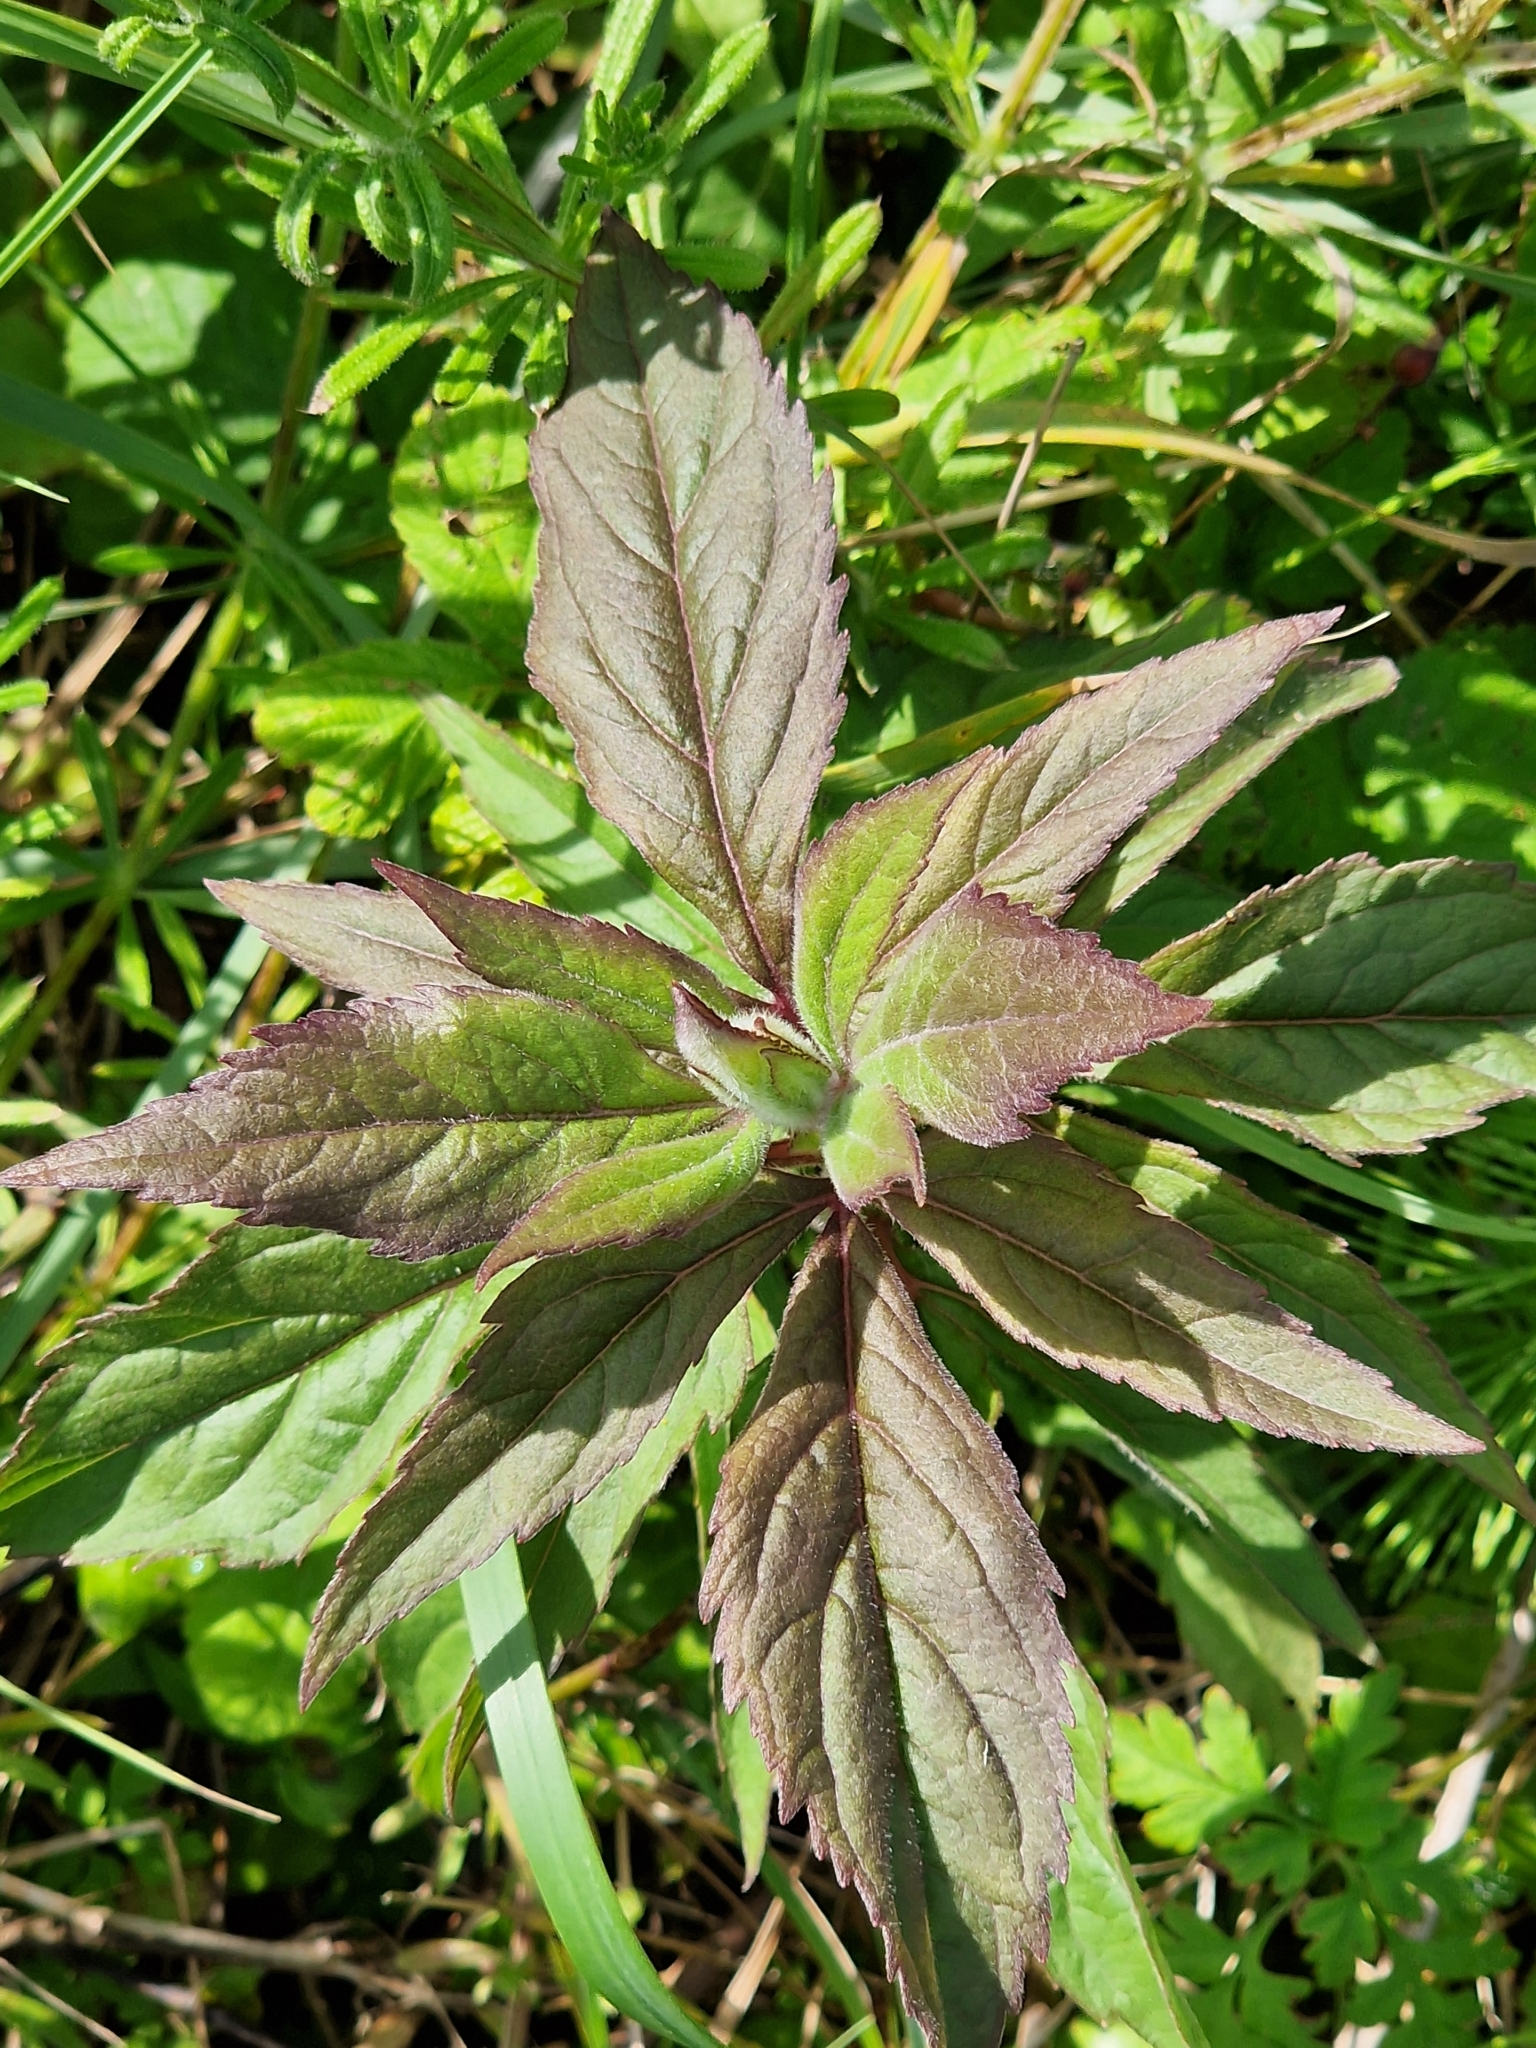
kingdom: Plantae
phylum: Tracheophyta
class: Magnoliopsida
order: Asterales
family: Asteraceae
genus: Eupatorium
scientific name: Eupatorium cannabinum
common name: Hemp-agrimony
